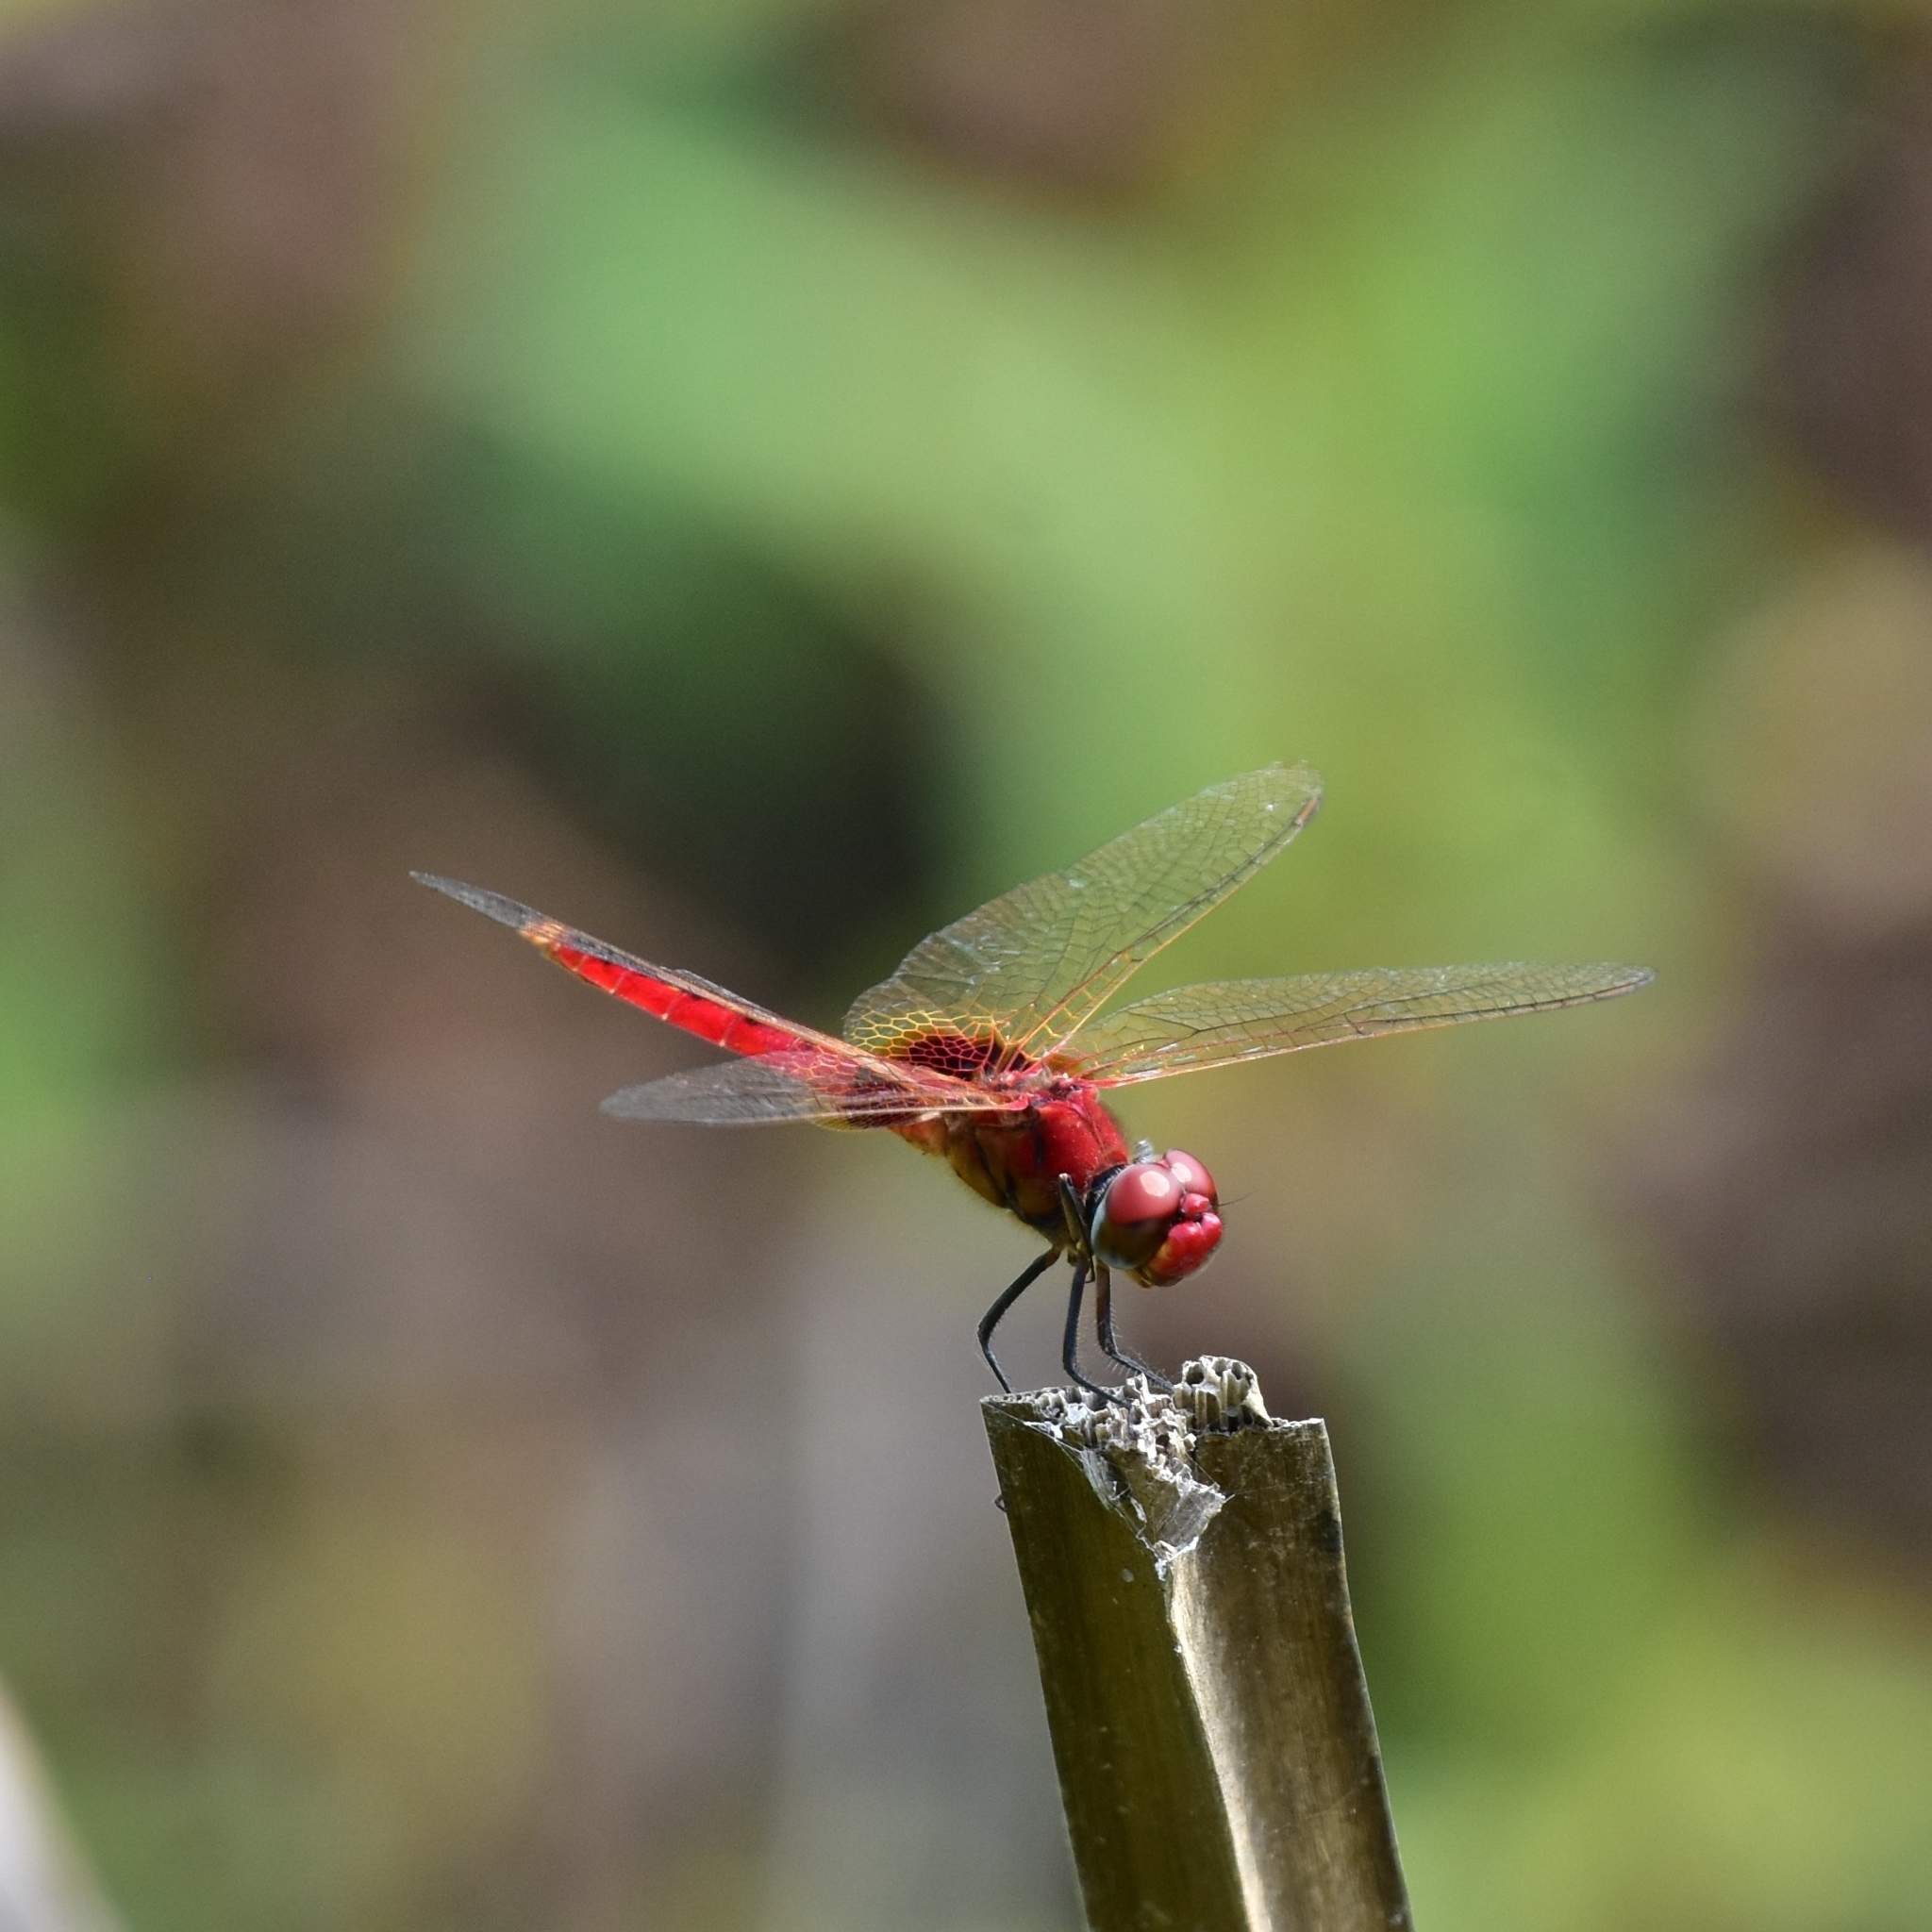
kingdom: Animalia
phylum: Arthropoda
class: Insecta
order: Odonata
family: Libellulidae
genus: Urothemis
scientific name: Urothemis signata
